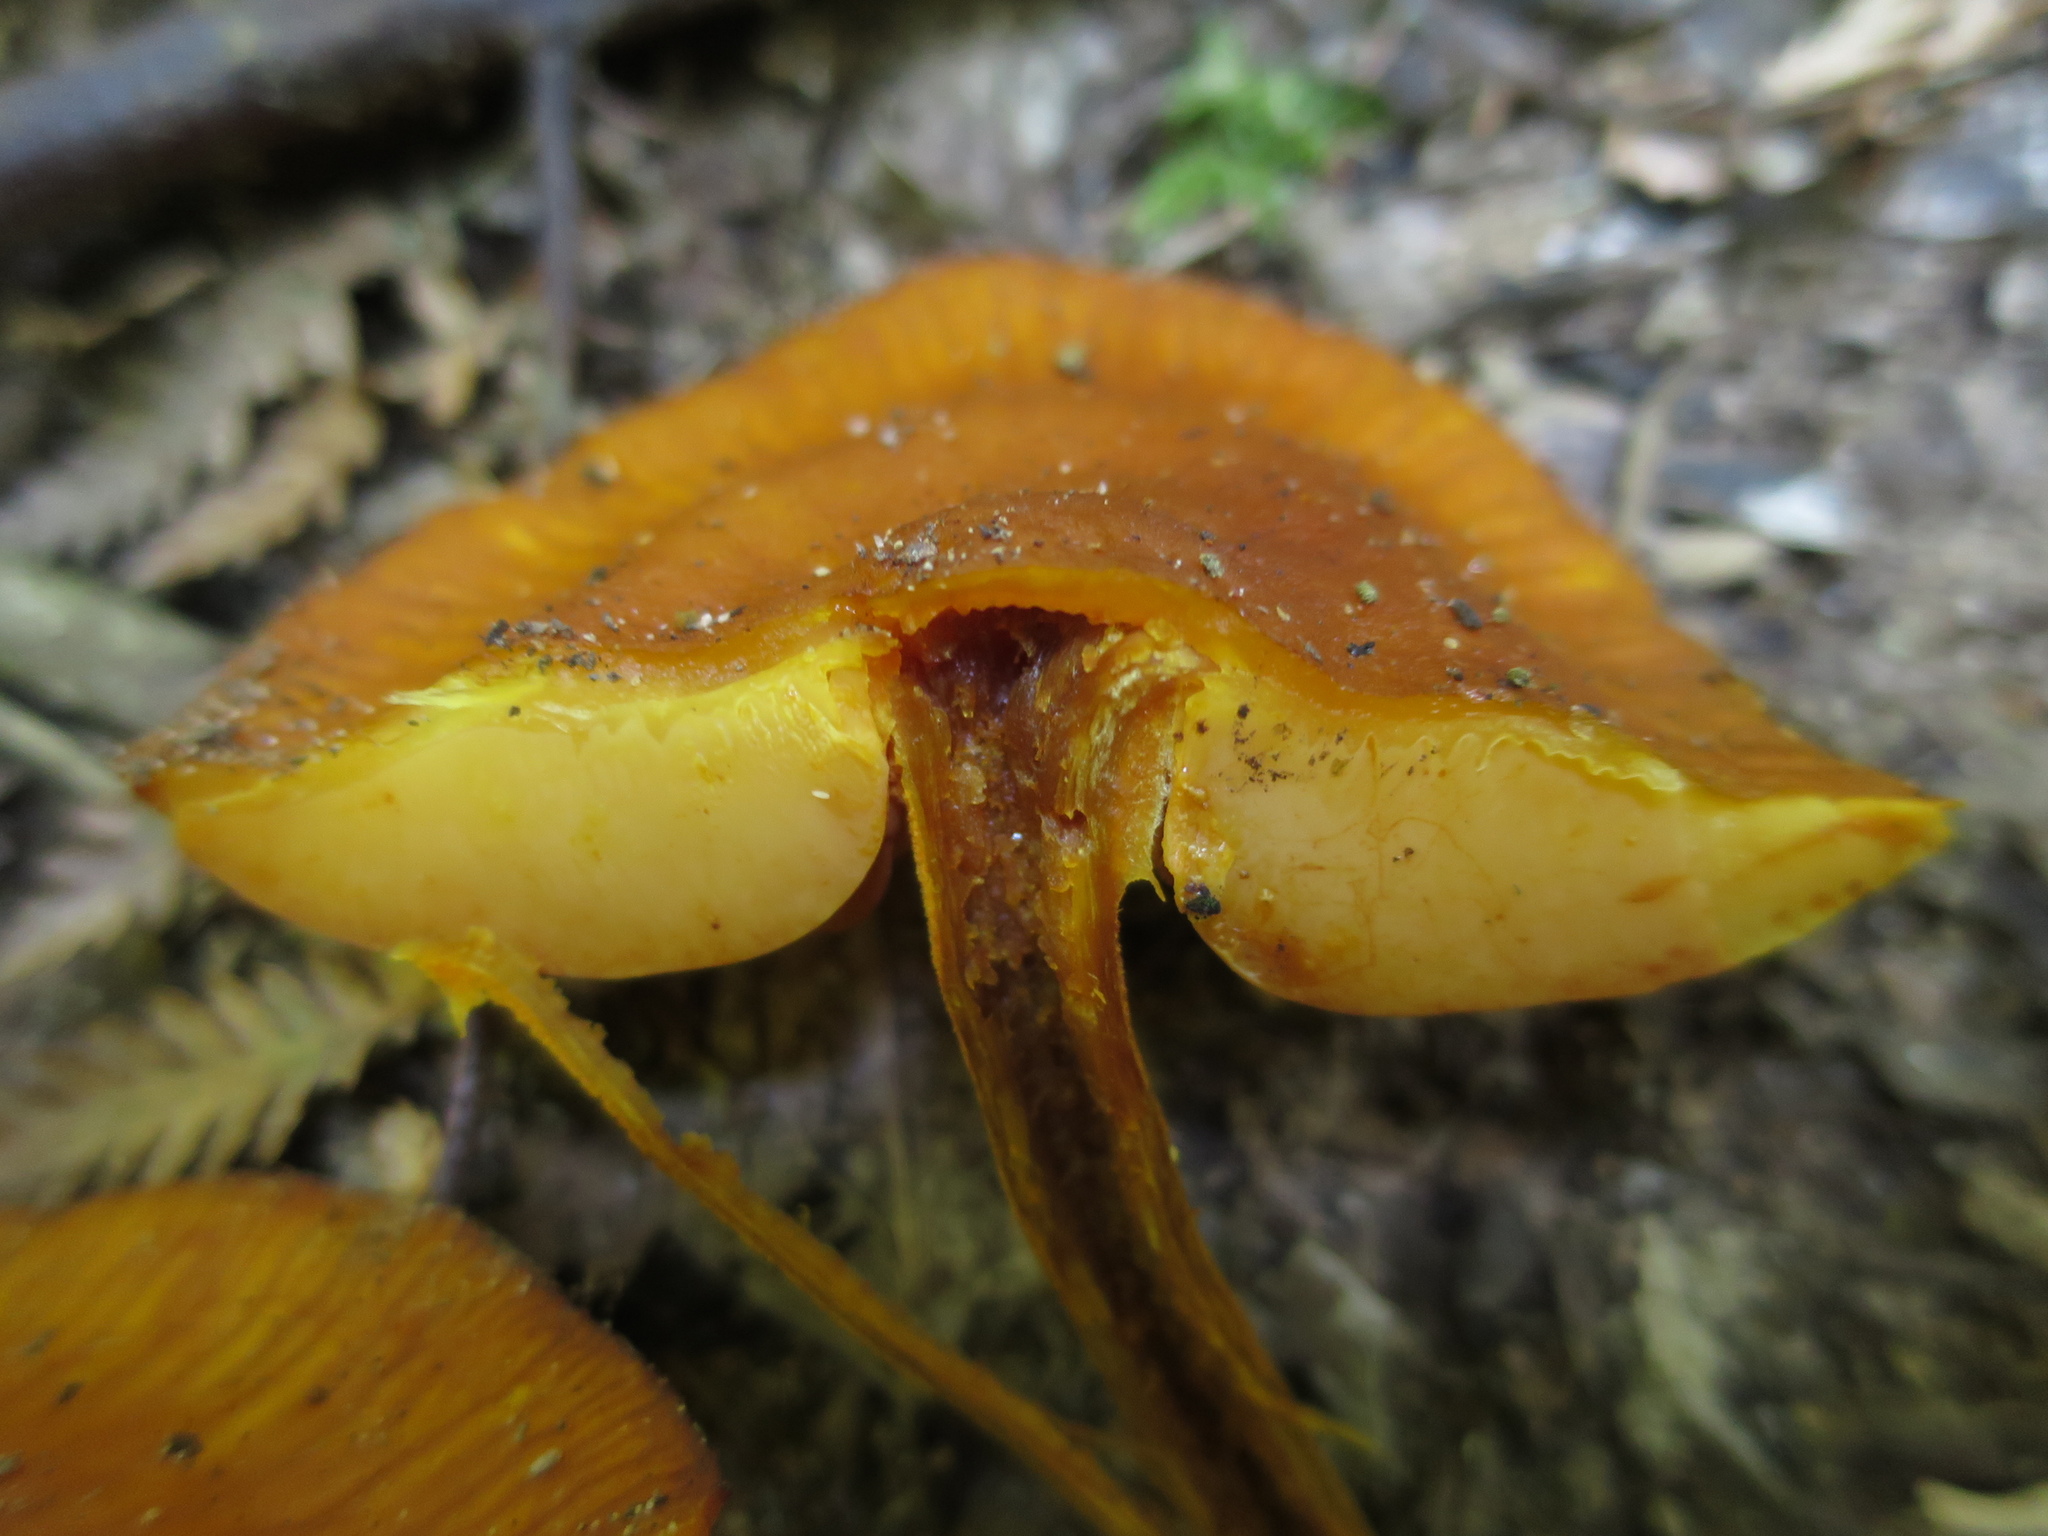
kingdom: Fungi
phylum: Basidiomycota
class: Agaricomycetes
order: Agaricales
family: Mycenaceae
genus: Heimiomyces
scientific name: Heimiomyces velutipes
